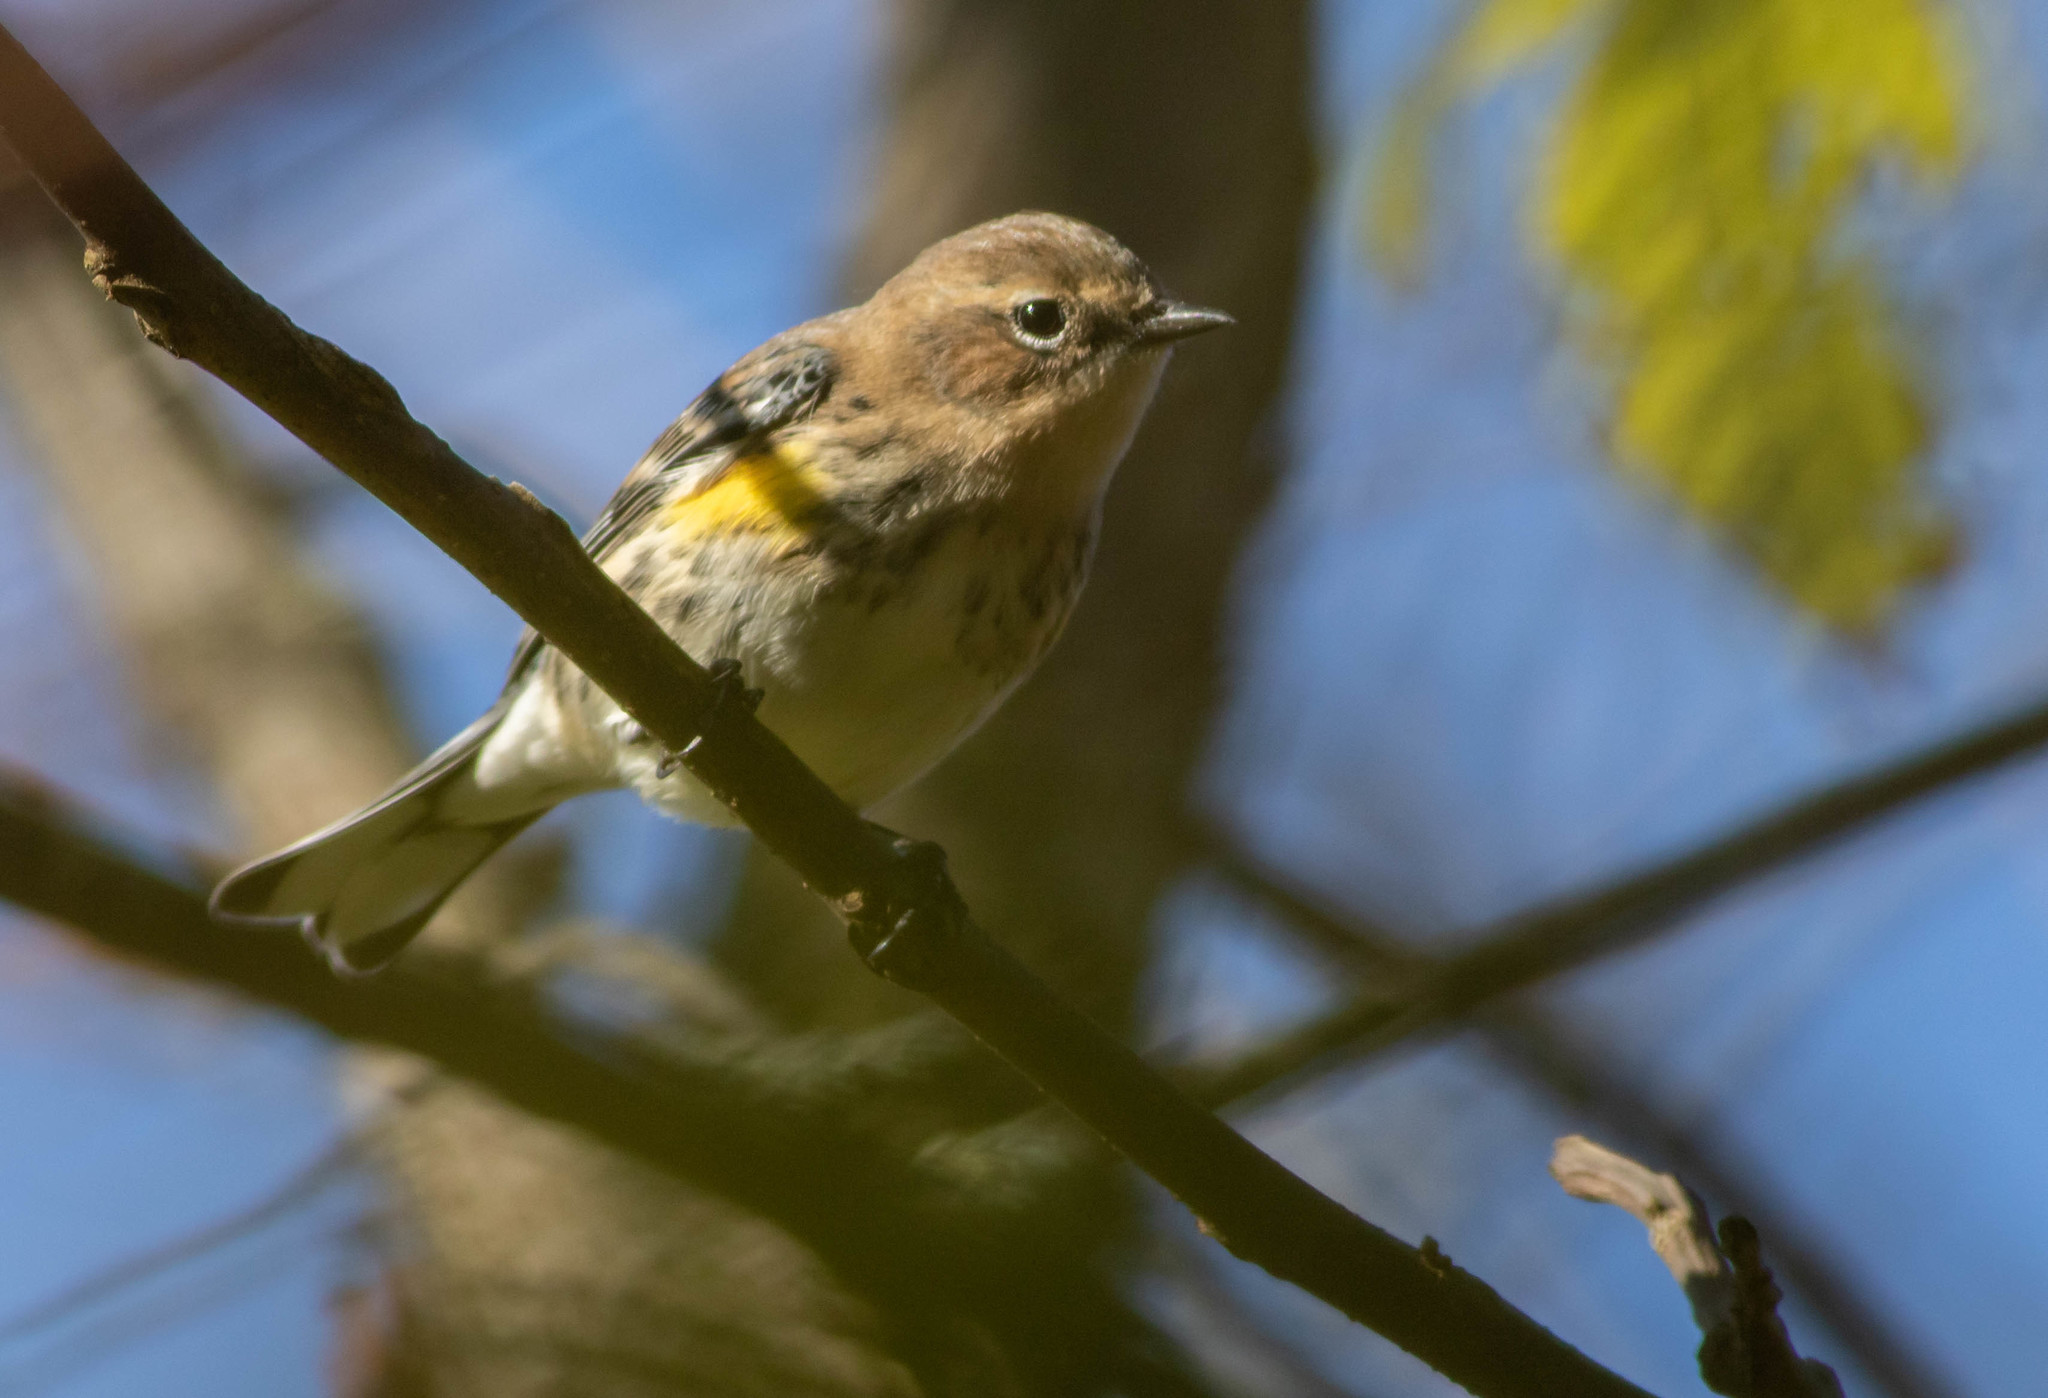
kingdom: Animalia
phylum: Chordata
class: Aves
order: Passeriformes
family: Parulidae
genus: Setophaga
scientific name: Setophaga coronata
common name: Myrtle warbler
